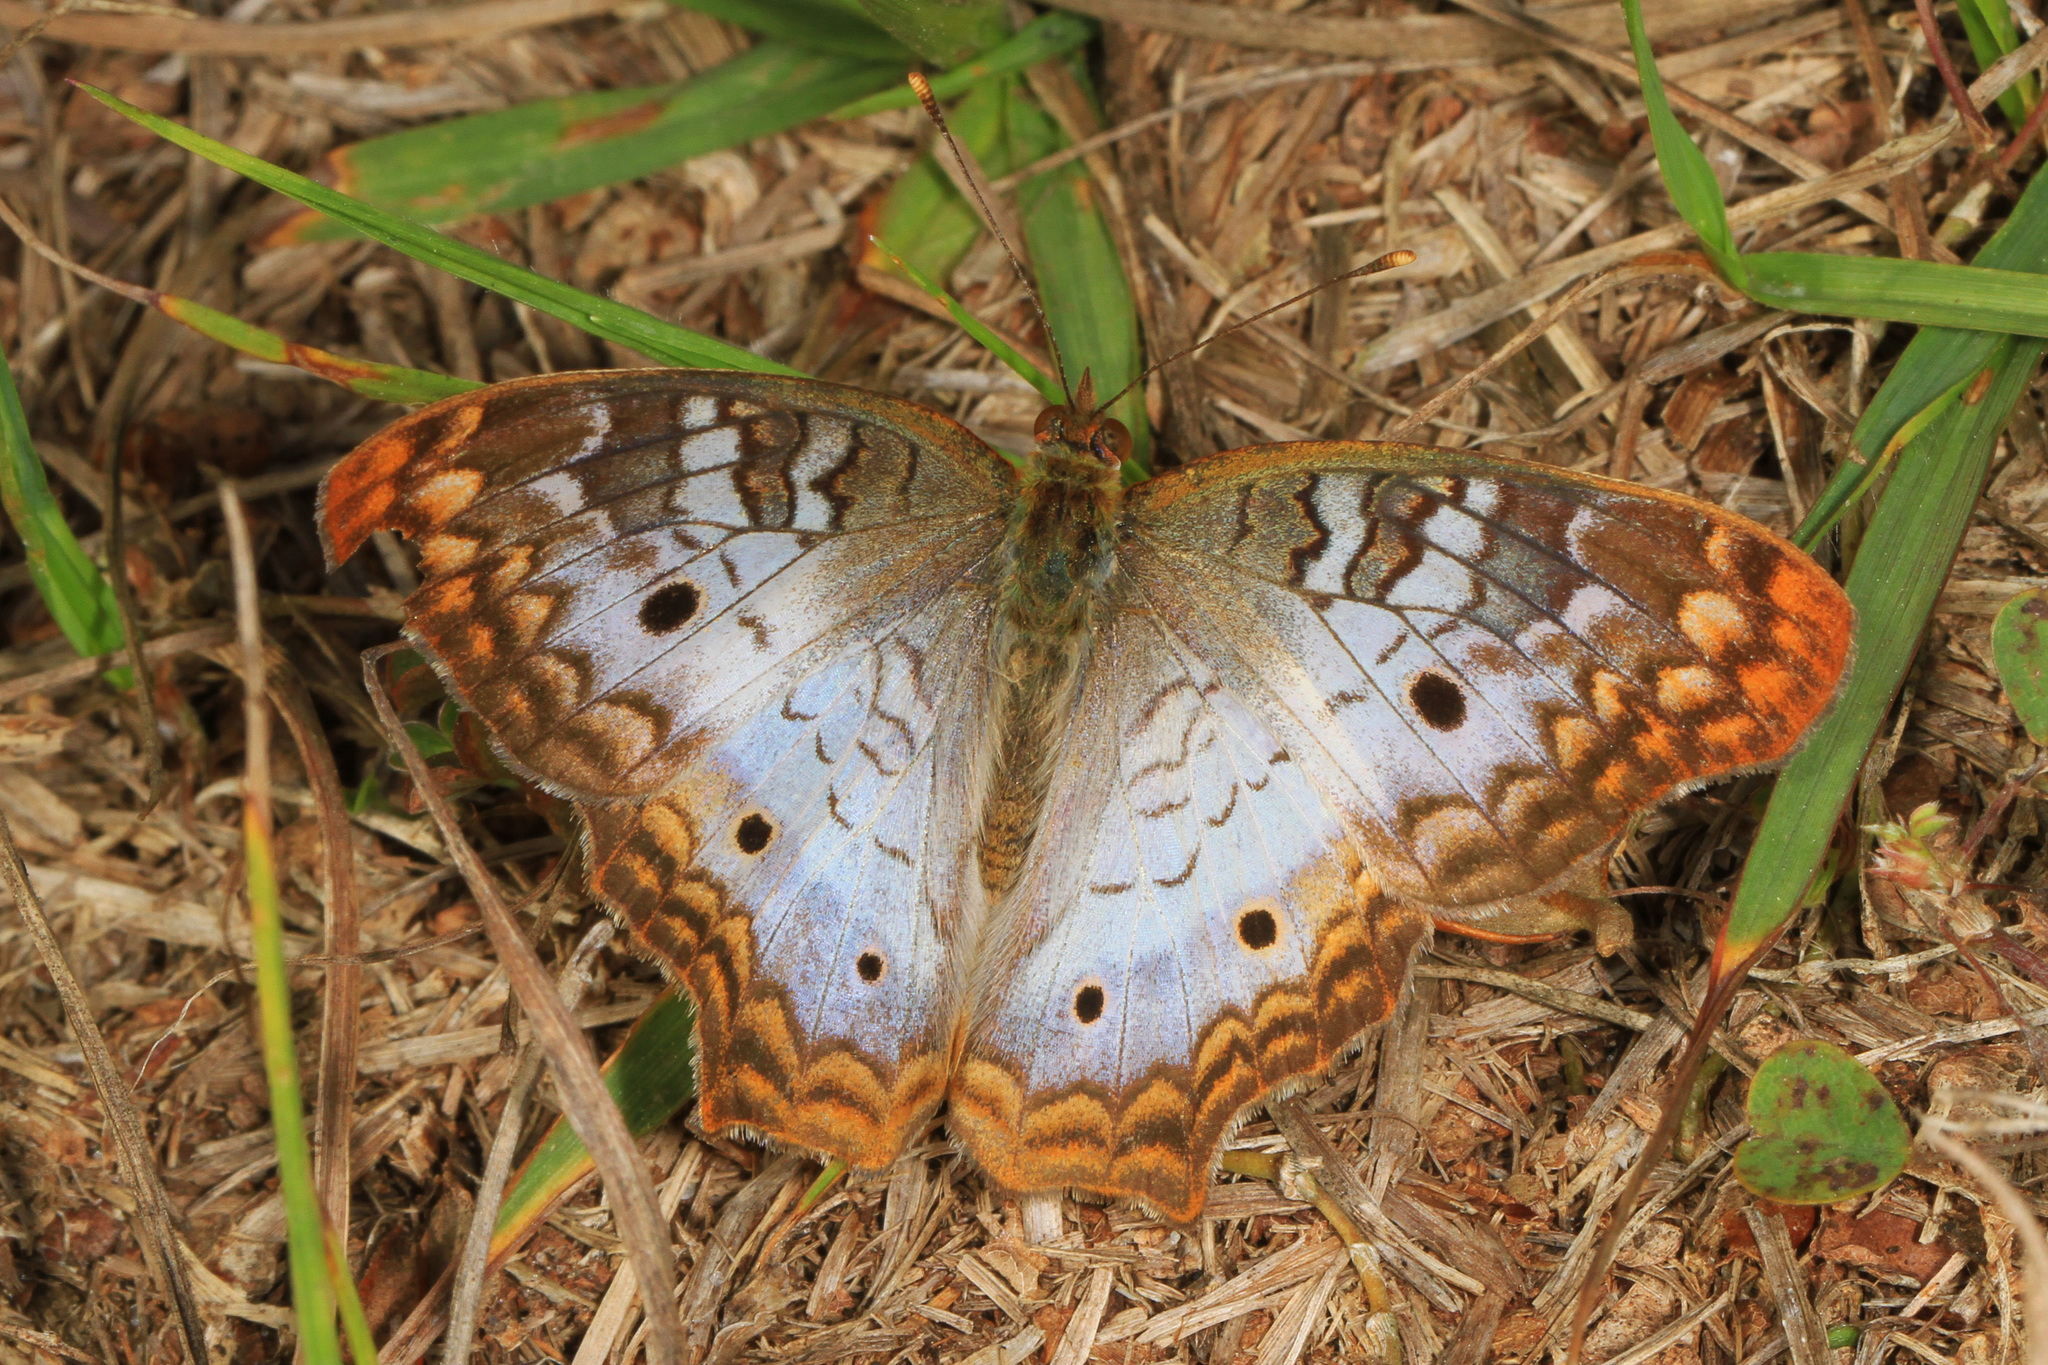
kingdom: Animalia
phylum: Arthropoda
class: Insecta
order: Lepidoptera
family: Nymphalidae
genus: Anartia
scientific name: Anartia jatrophae
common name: White peacock
